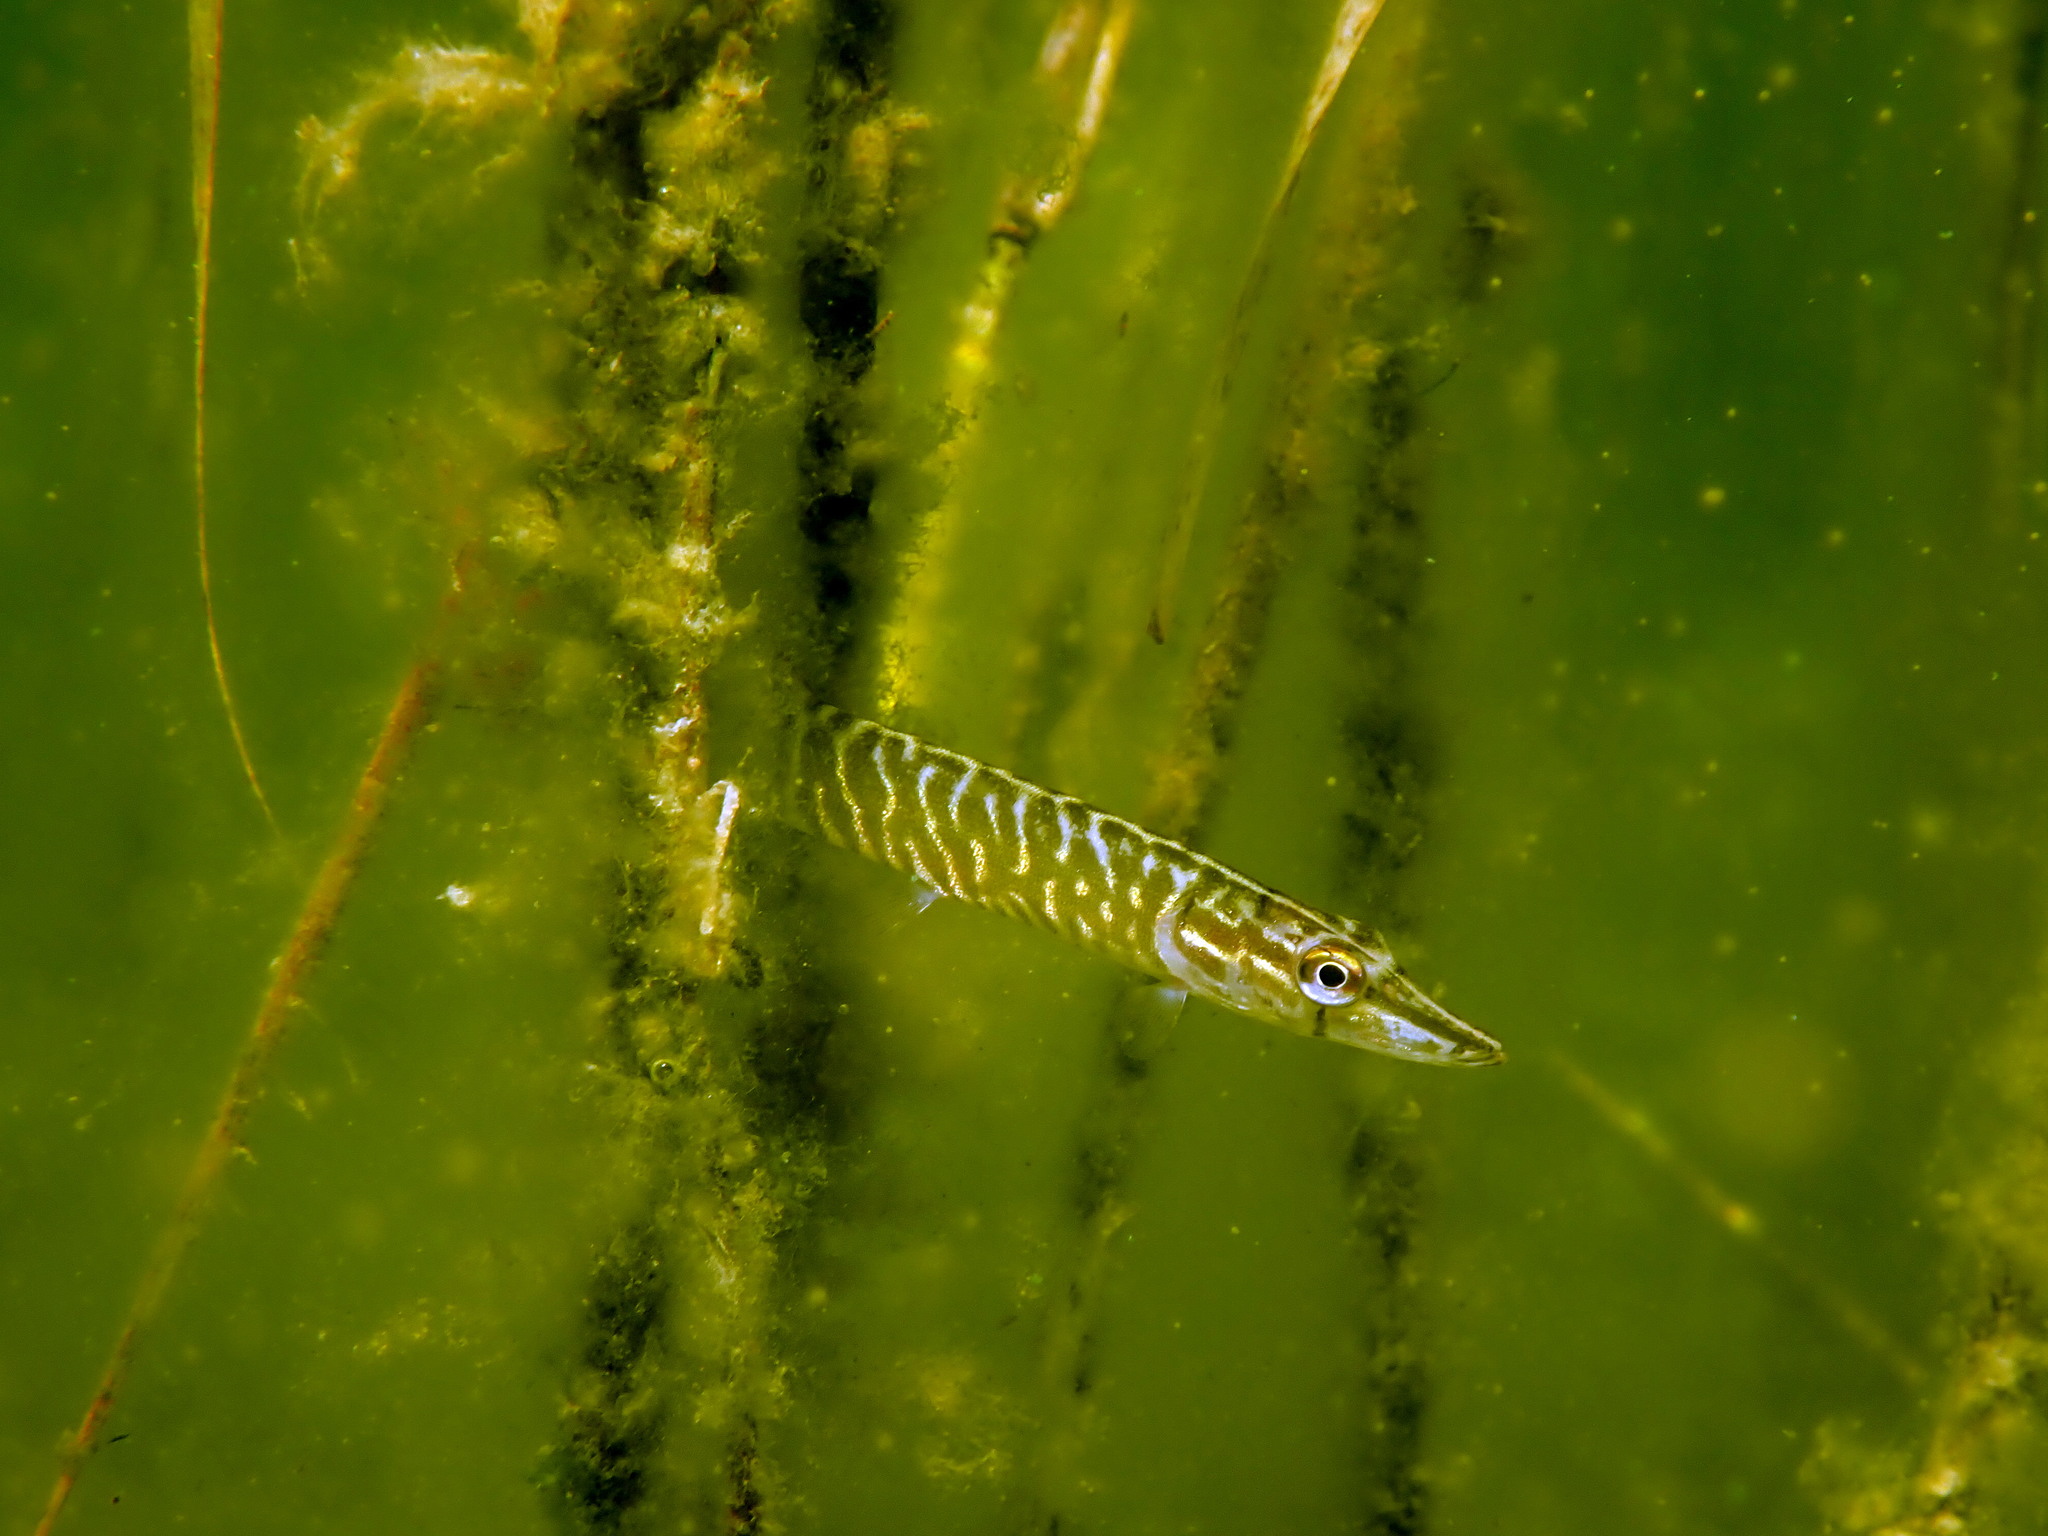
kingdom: Animalia
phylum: Chordata
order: Esociformes
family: Esocidae
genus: Esox
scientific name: Esox lucius
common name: Northern pike
